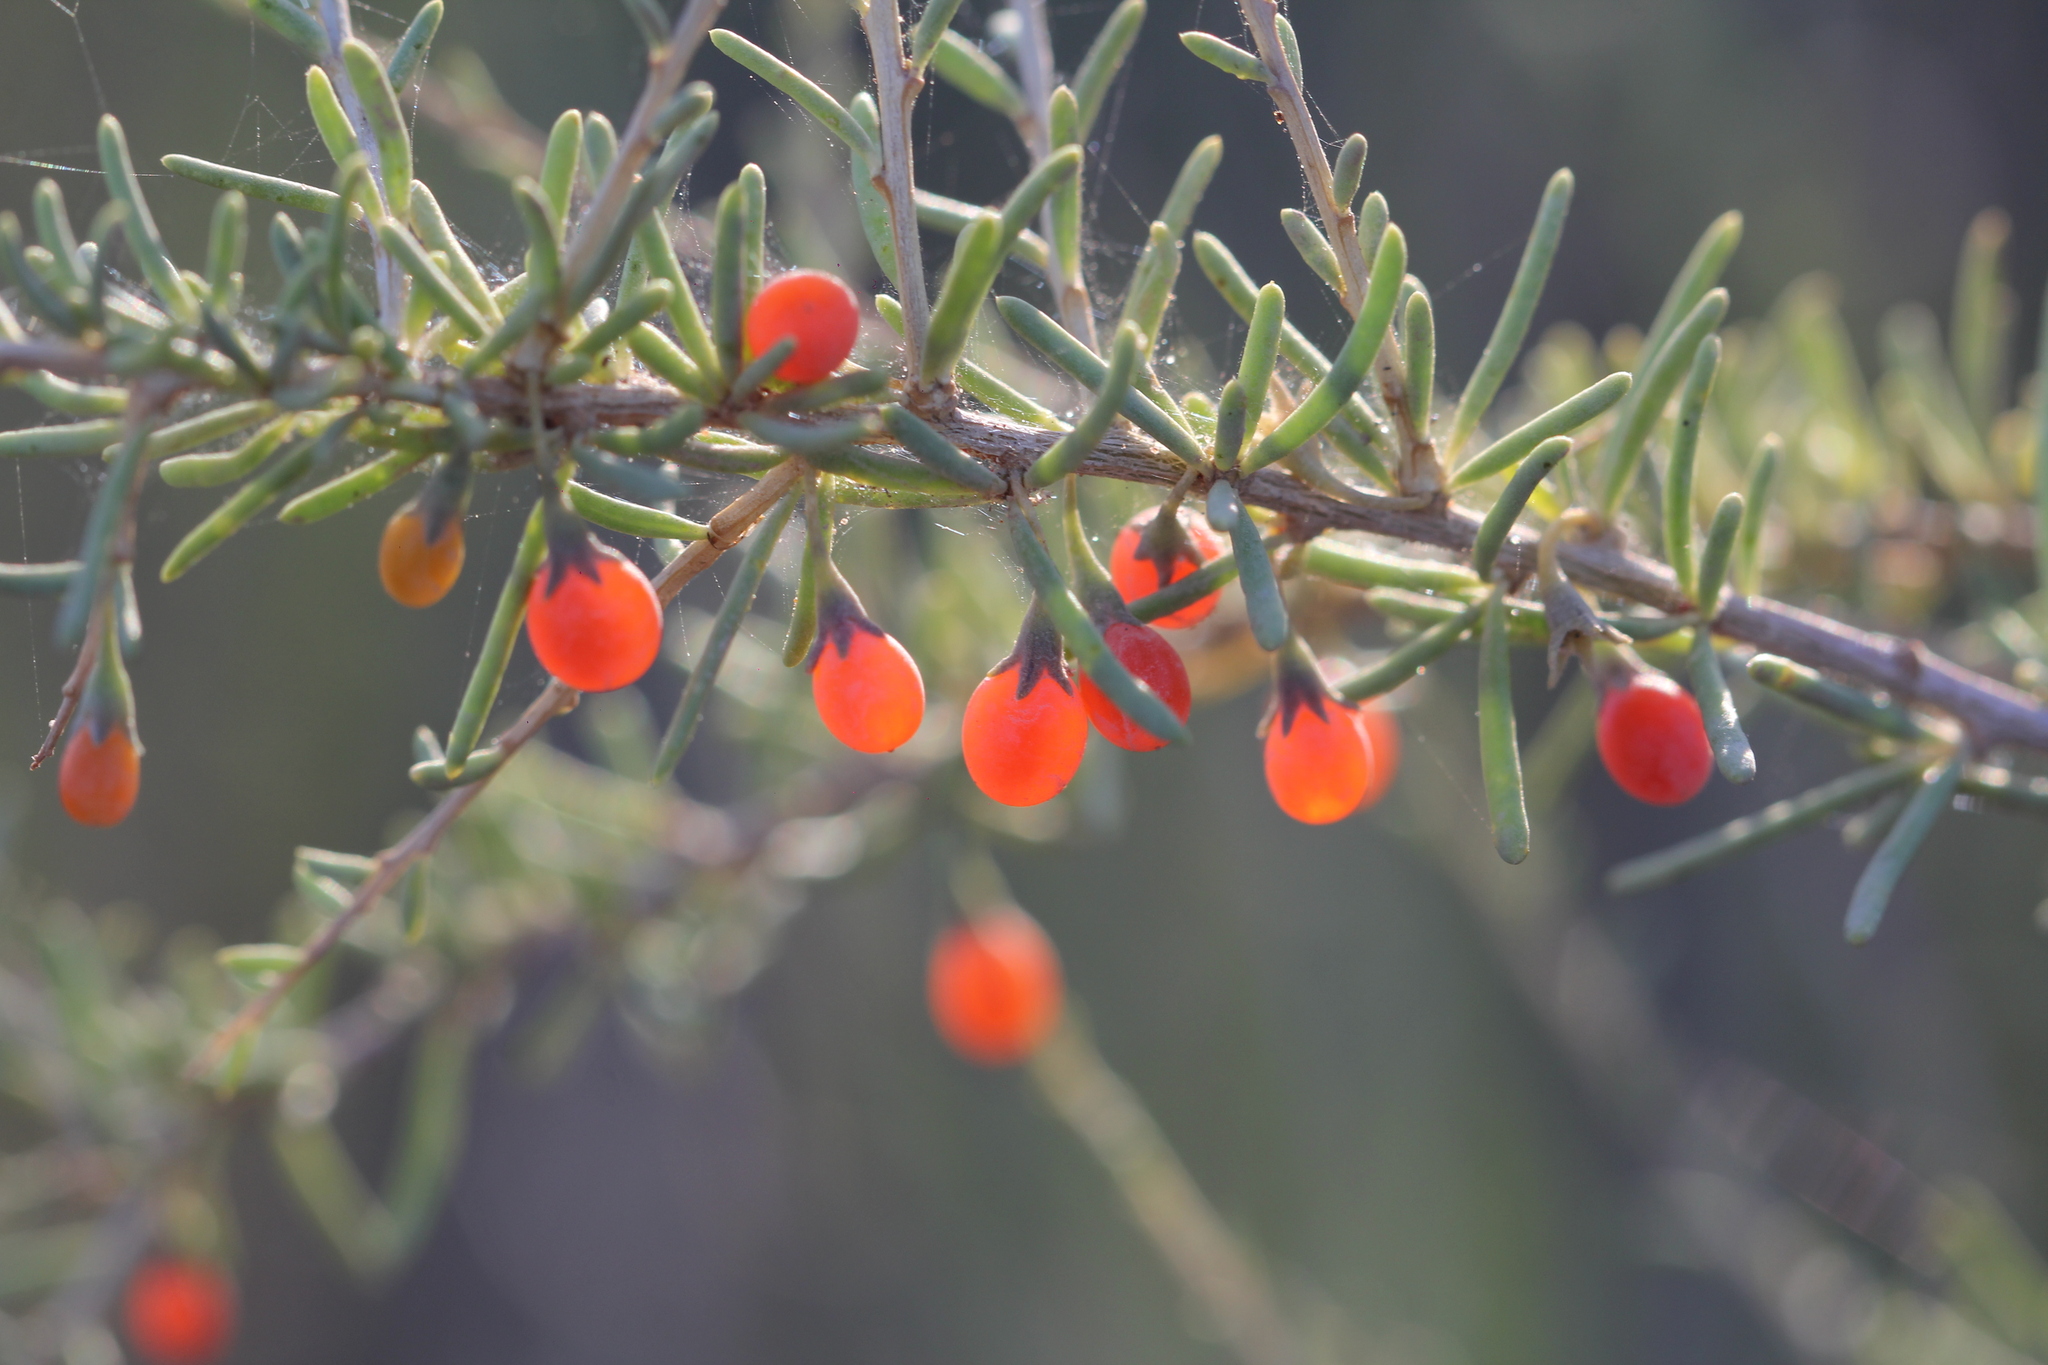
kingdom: Plantae
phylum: Tracheophyta
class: Magnoliopsida
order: Solanales
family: Solanaceae
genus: Lycium
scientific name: Lycium chilense
